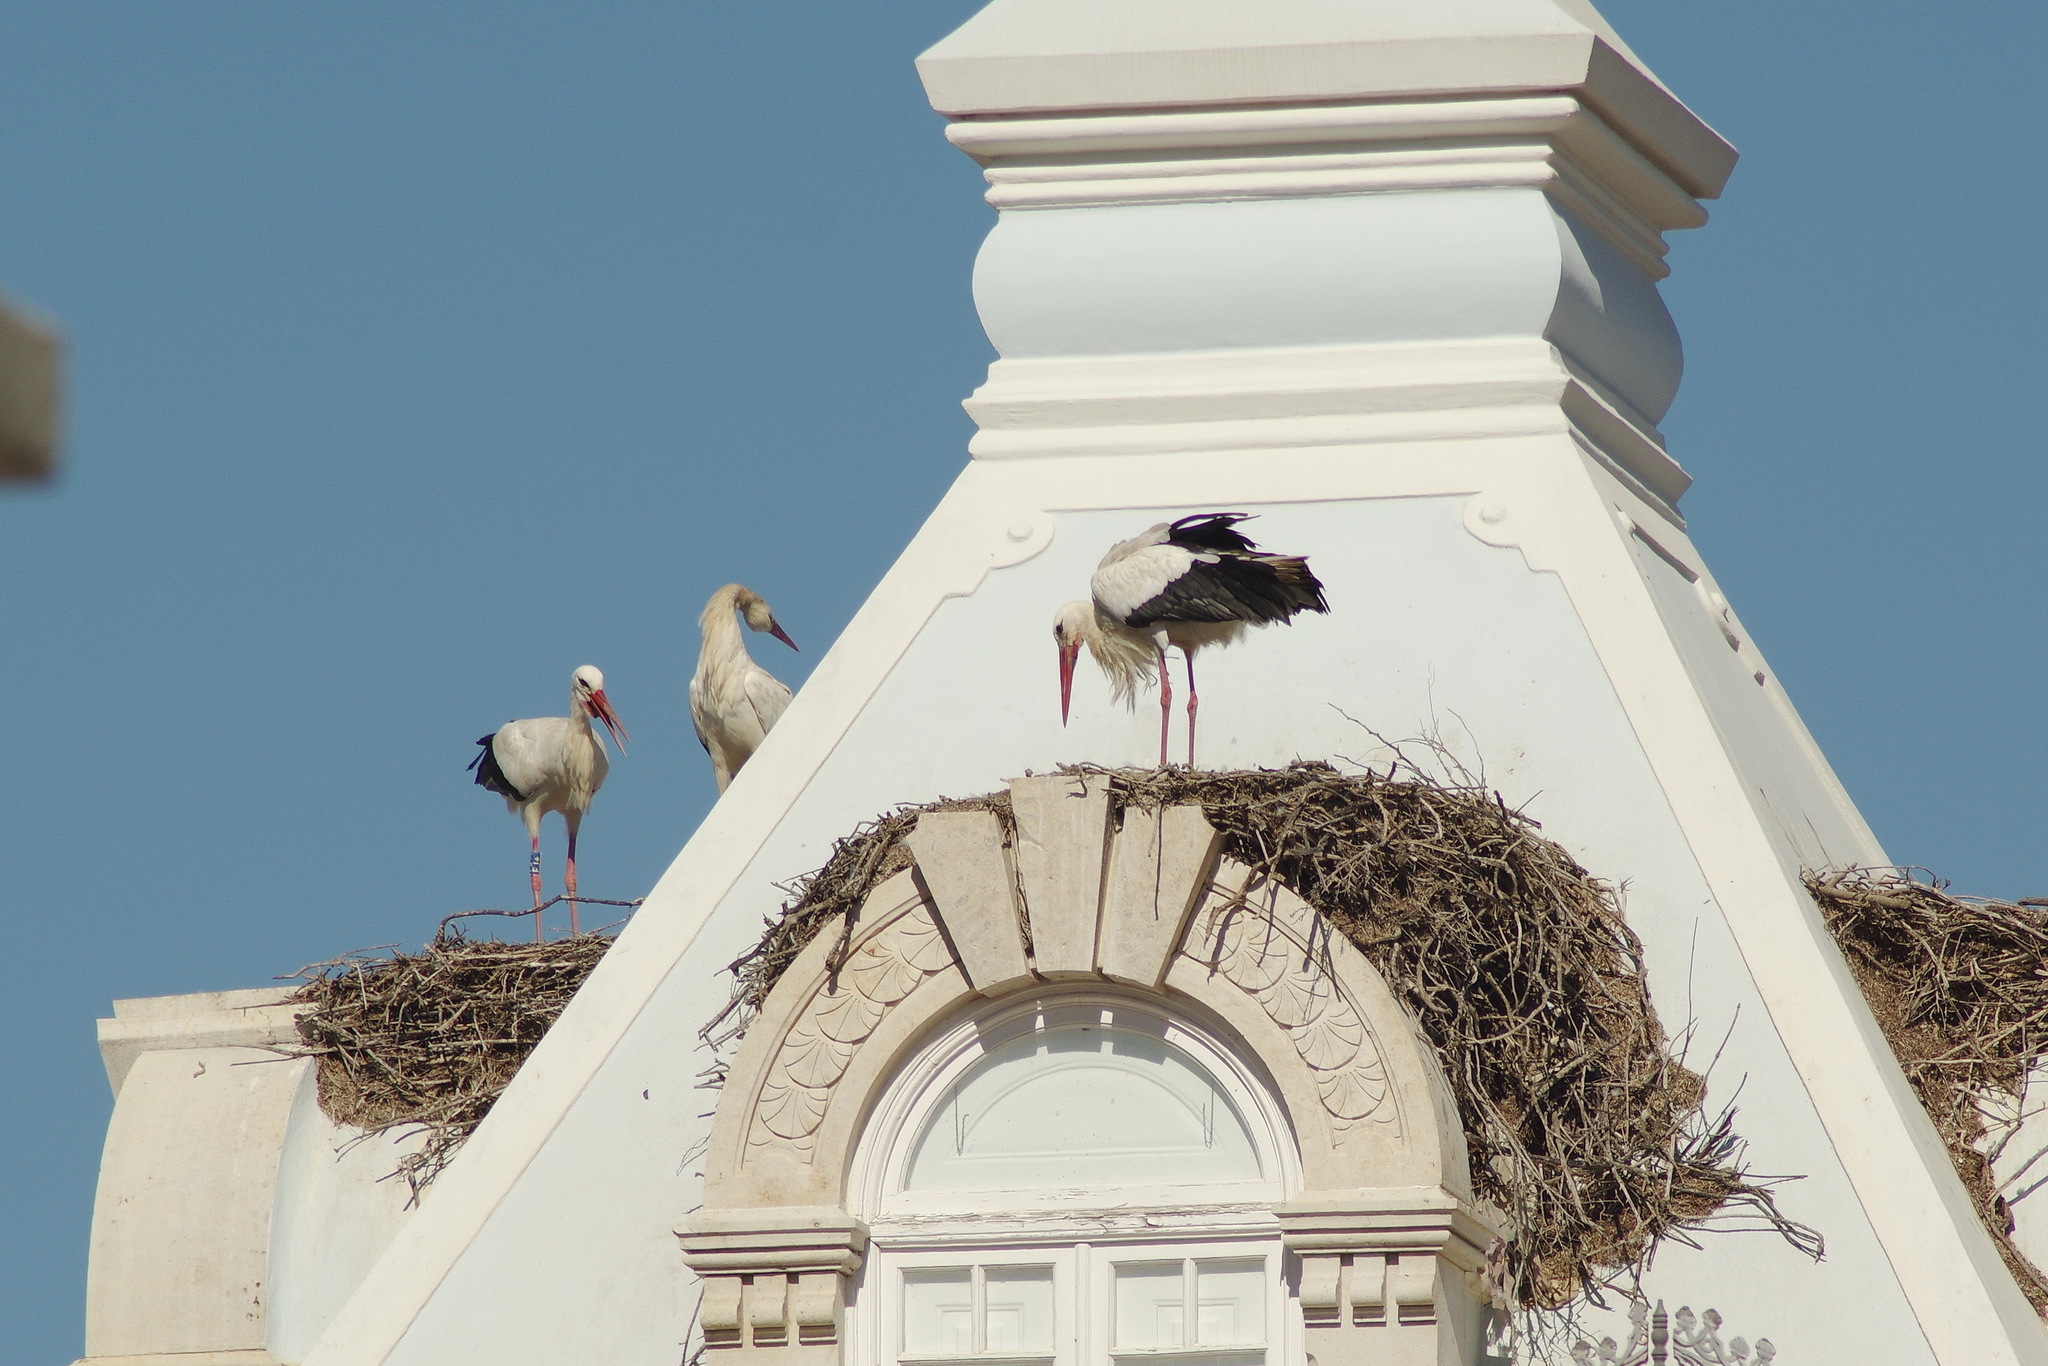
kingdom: Animalia
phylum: Chordata
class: Aves
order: Ciconiiformes
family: Ciconiidae
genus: Ciconia
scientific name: Ciconia ciconia
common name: White stork
